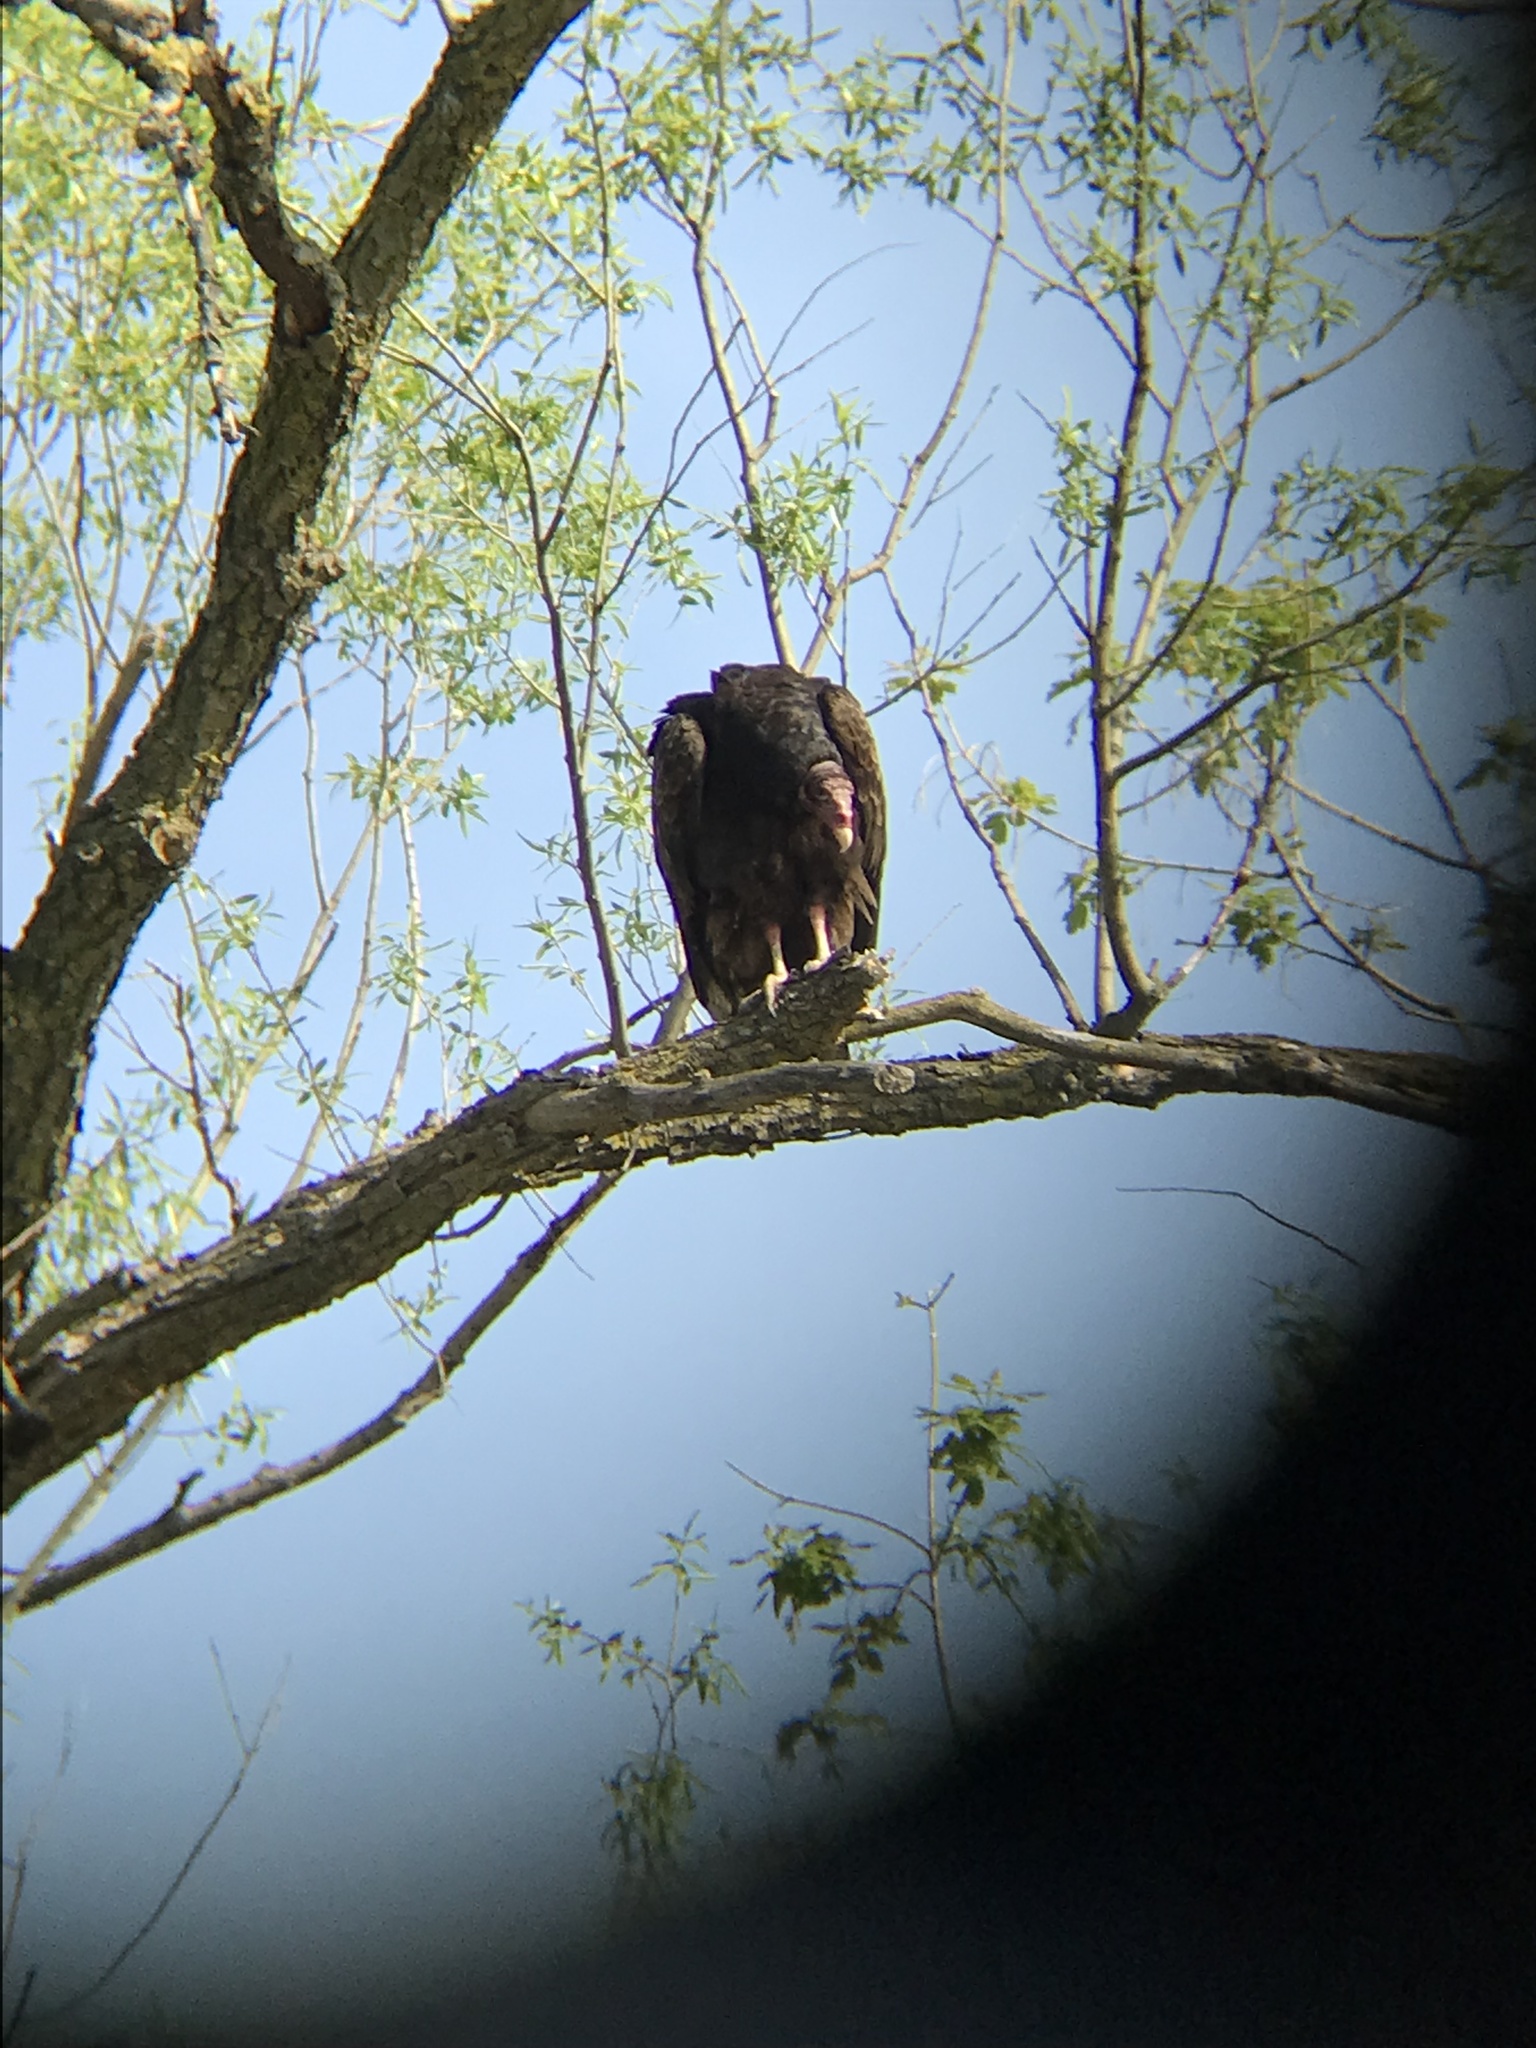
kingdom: Animalia
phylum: Chordata
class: Aves
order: Accipitriformes
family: Cathartidae
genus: Cathartes
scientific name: Cathartes aura
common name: Turkey vulture
